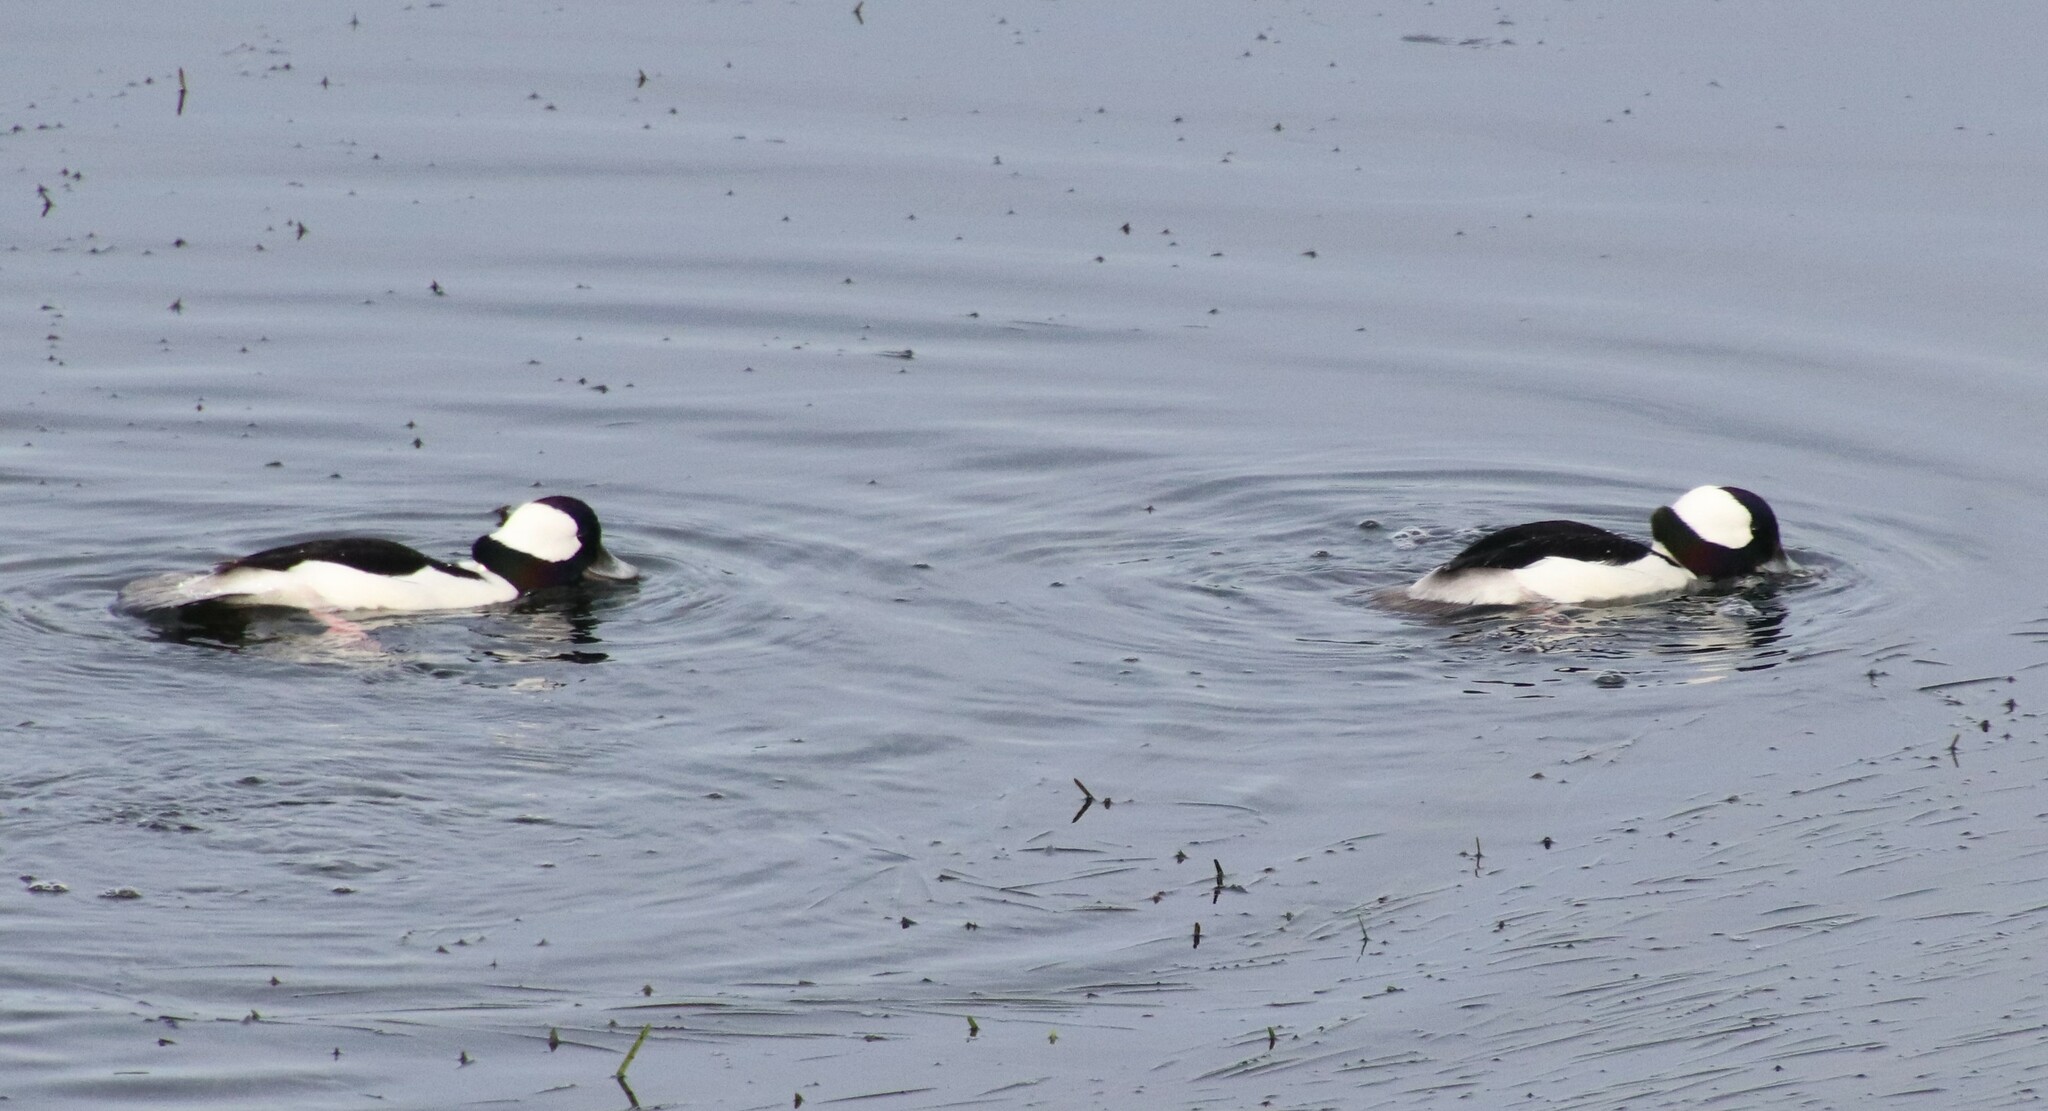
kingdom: Animalia
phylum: Chordata
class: Aves
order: Anseriformes
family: Anatidae
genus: Bucephala
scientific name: Bucephala albeola
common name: Bufflehead
